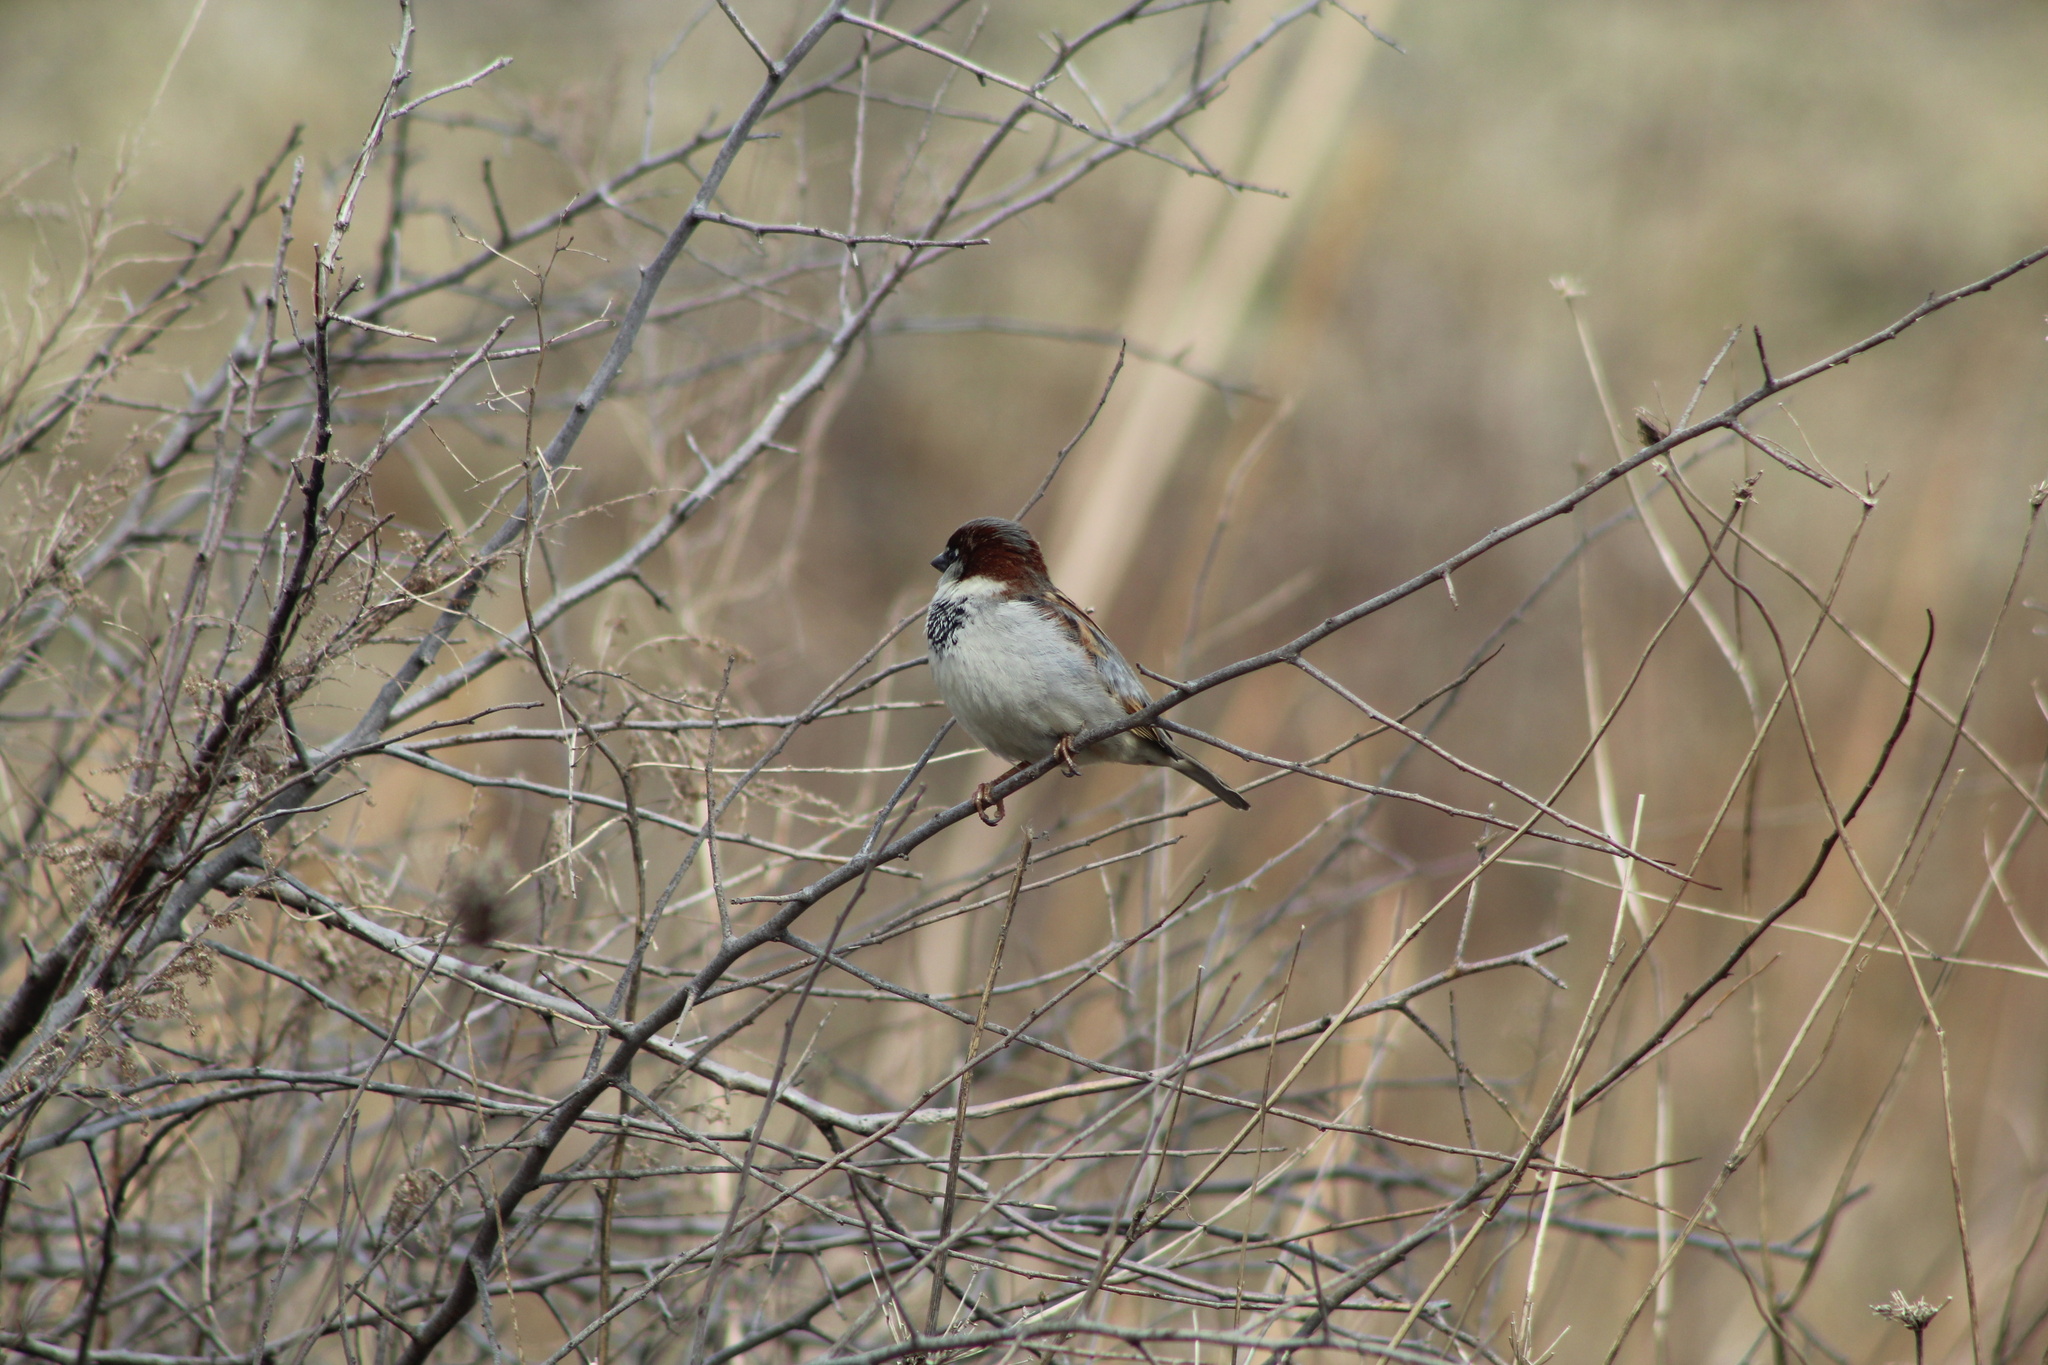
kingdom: Animalia
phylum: Chordata
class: Aves
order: Passeriformes
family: Passeridae
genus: Passer
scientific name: Passer domesticus
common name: House sparrow
